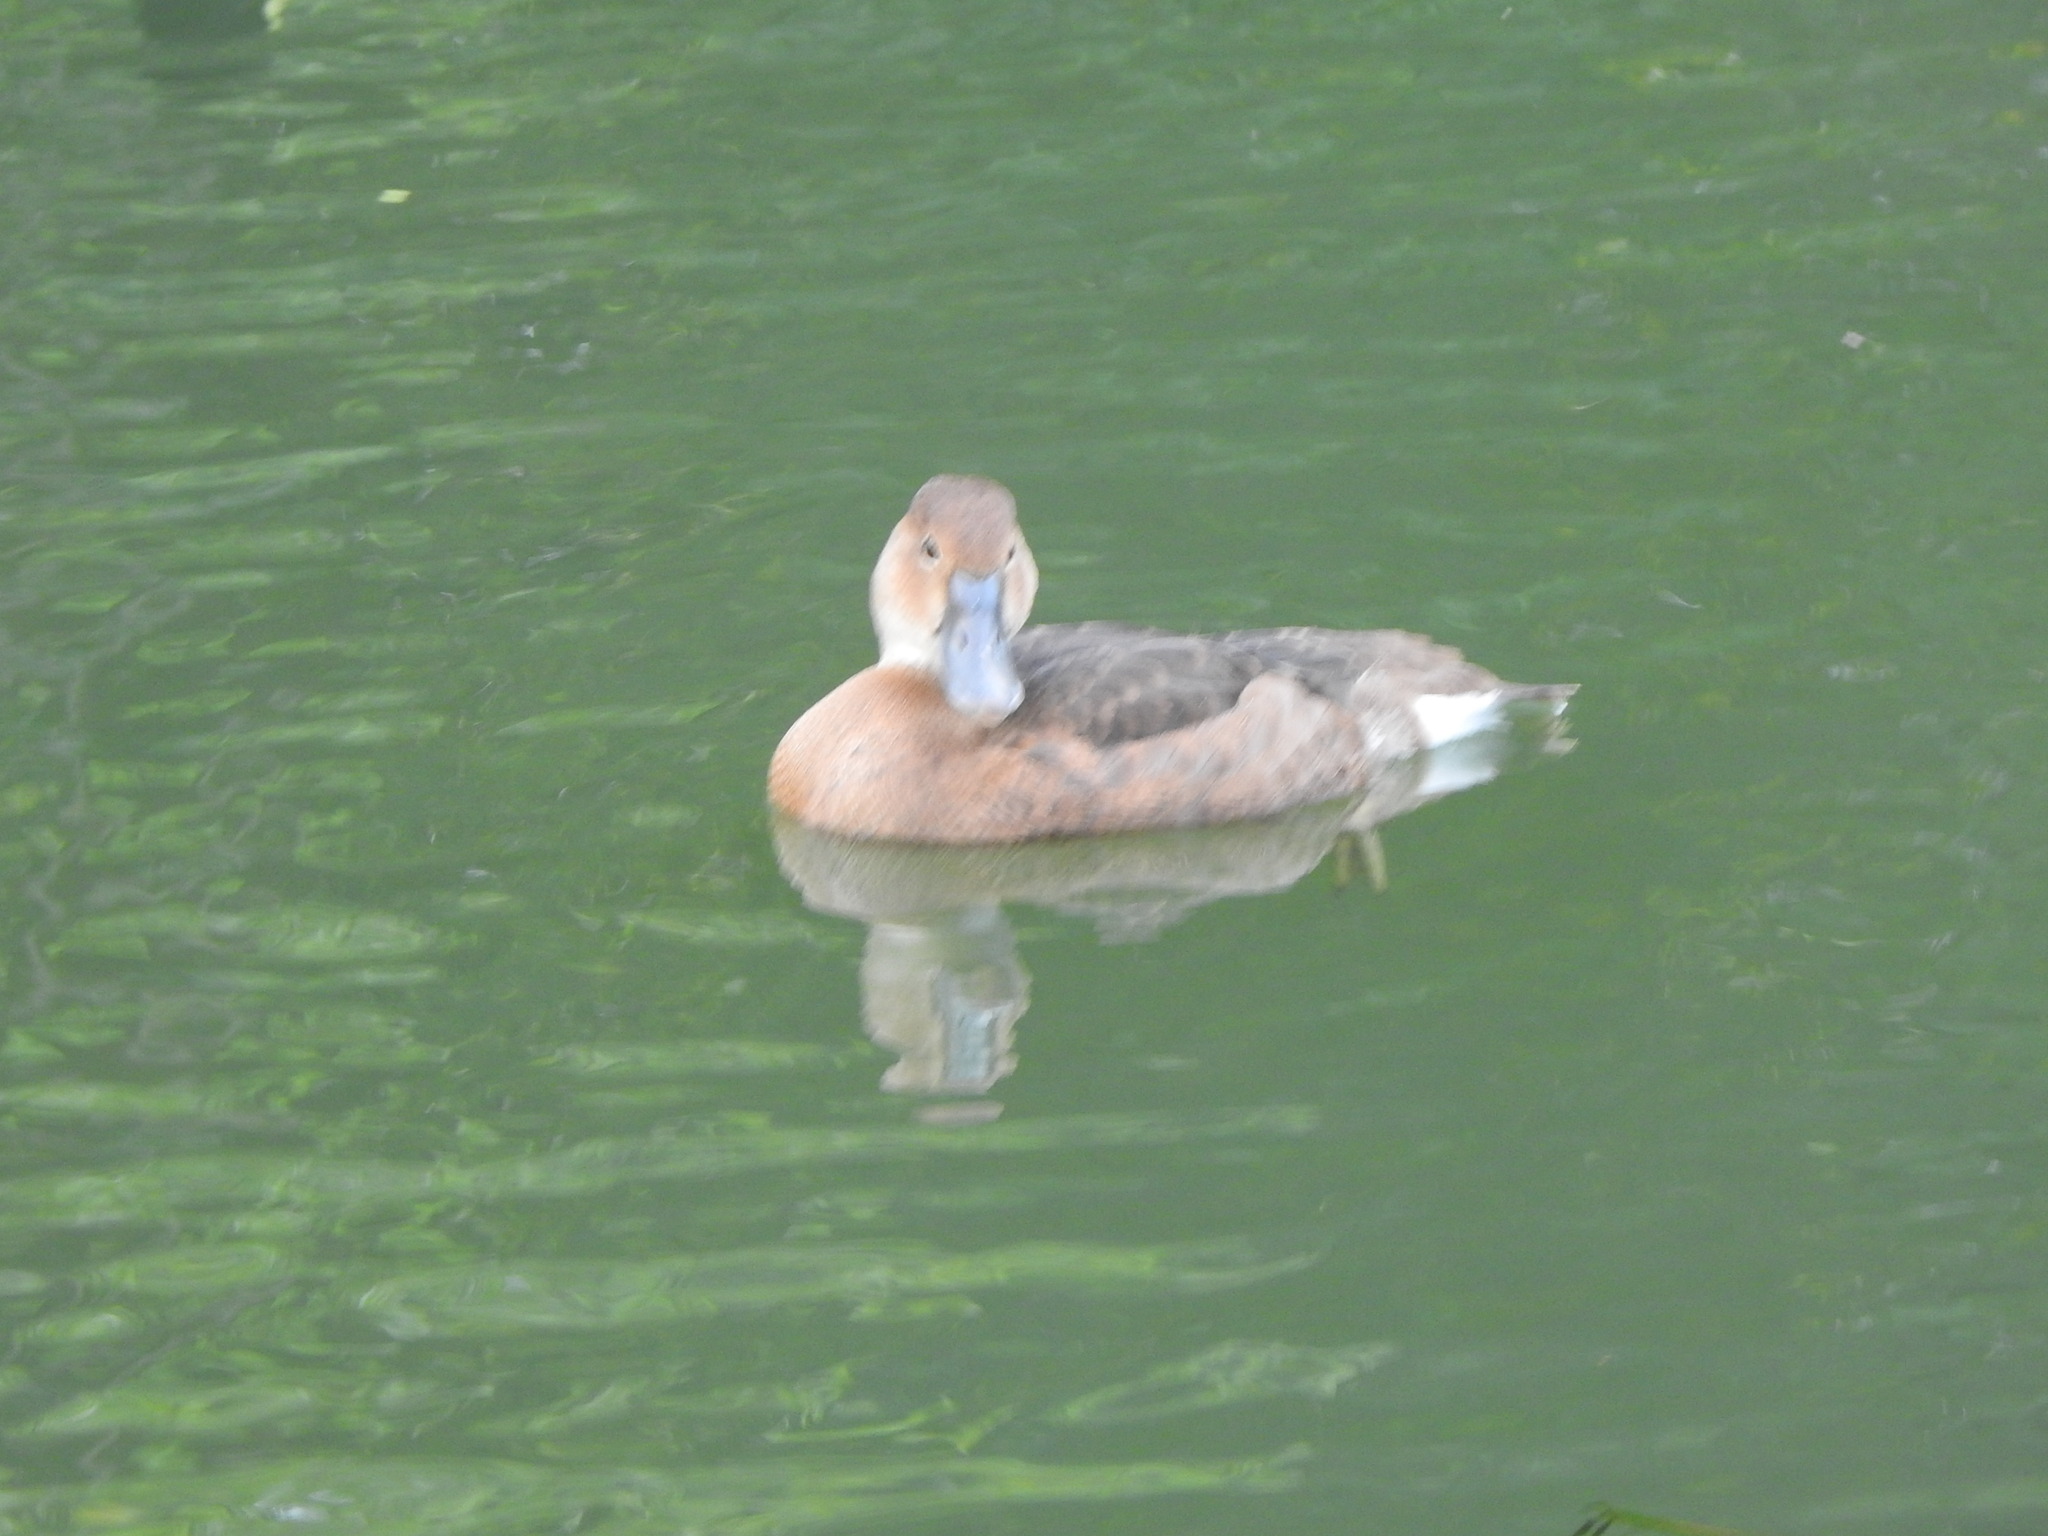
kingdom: Animalia
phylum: Chordata
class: Aves
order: Anseriformes
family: Anatidae
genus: Netta
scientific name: Netta peposaca
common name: Rosy-billed pochard
